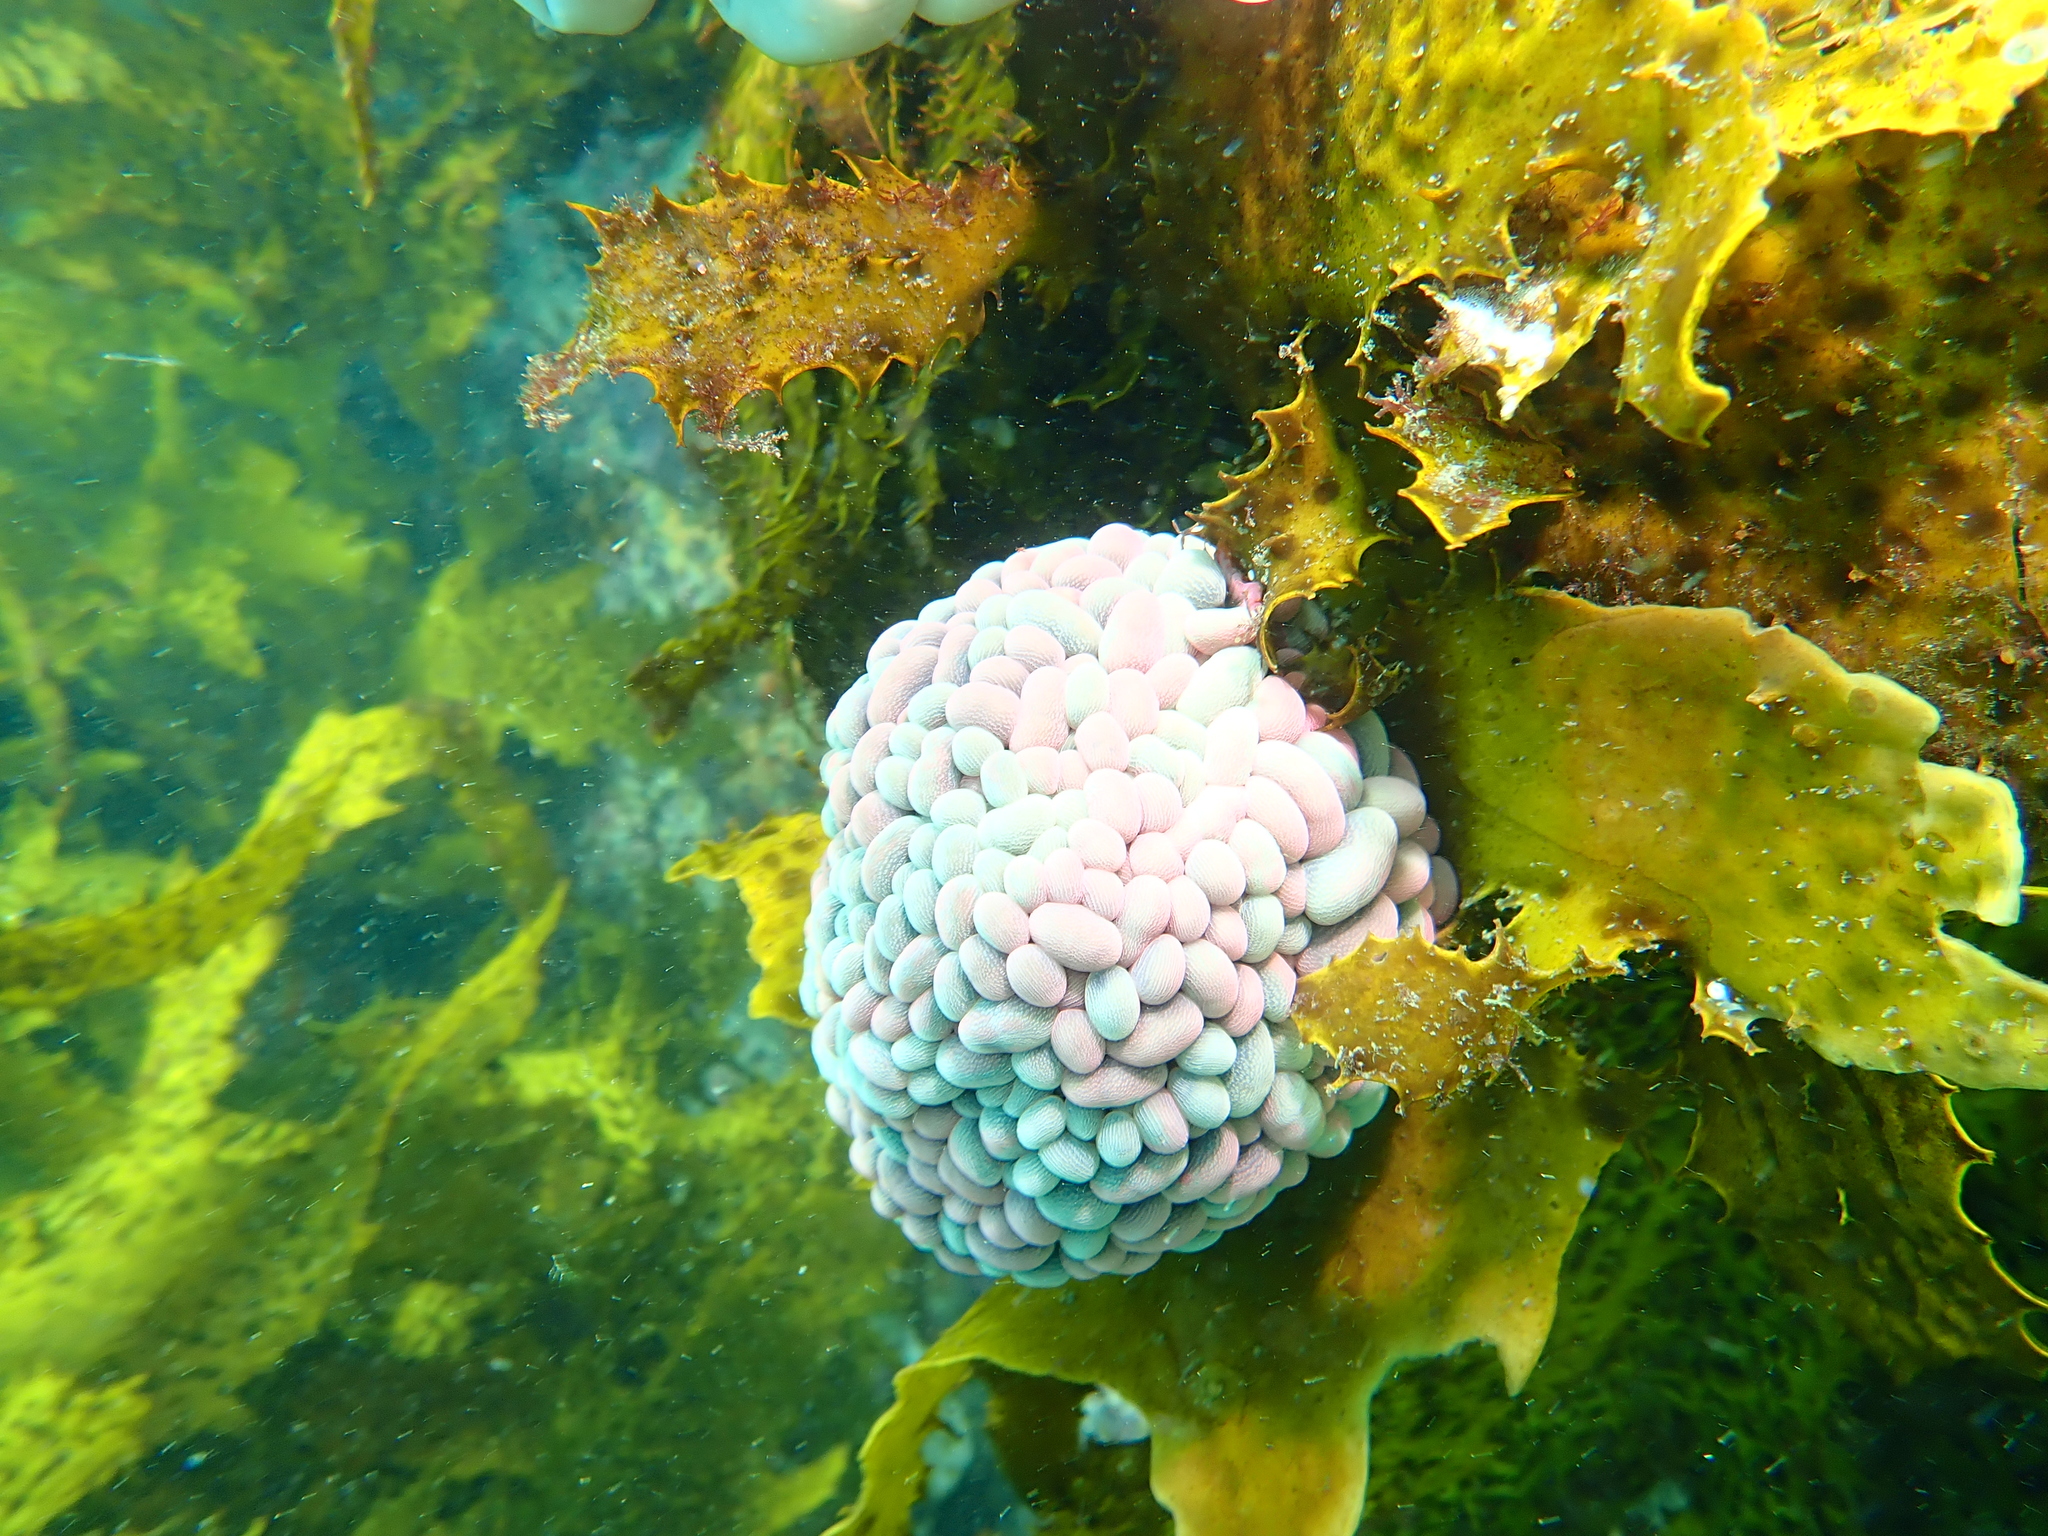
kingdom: Animalia
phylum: Cnidaria
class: Anthozoa
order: Actiniaria
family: Actiniidae
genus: Phlyctenactis
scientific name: Phlyctenactis tuberculosa
